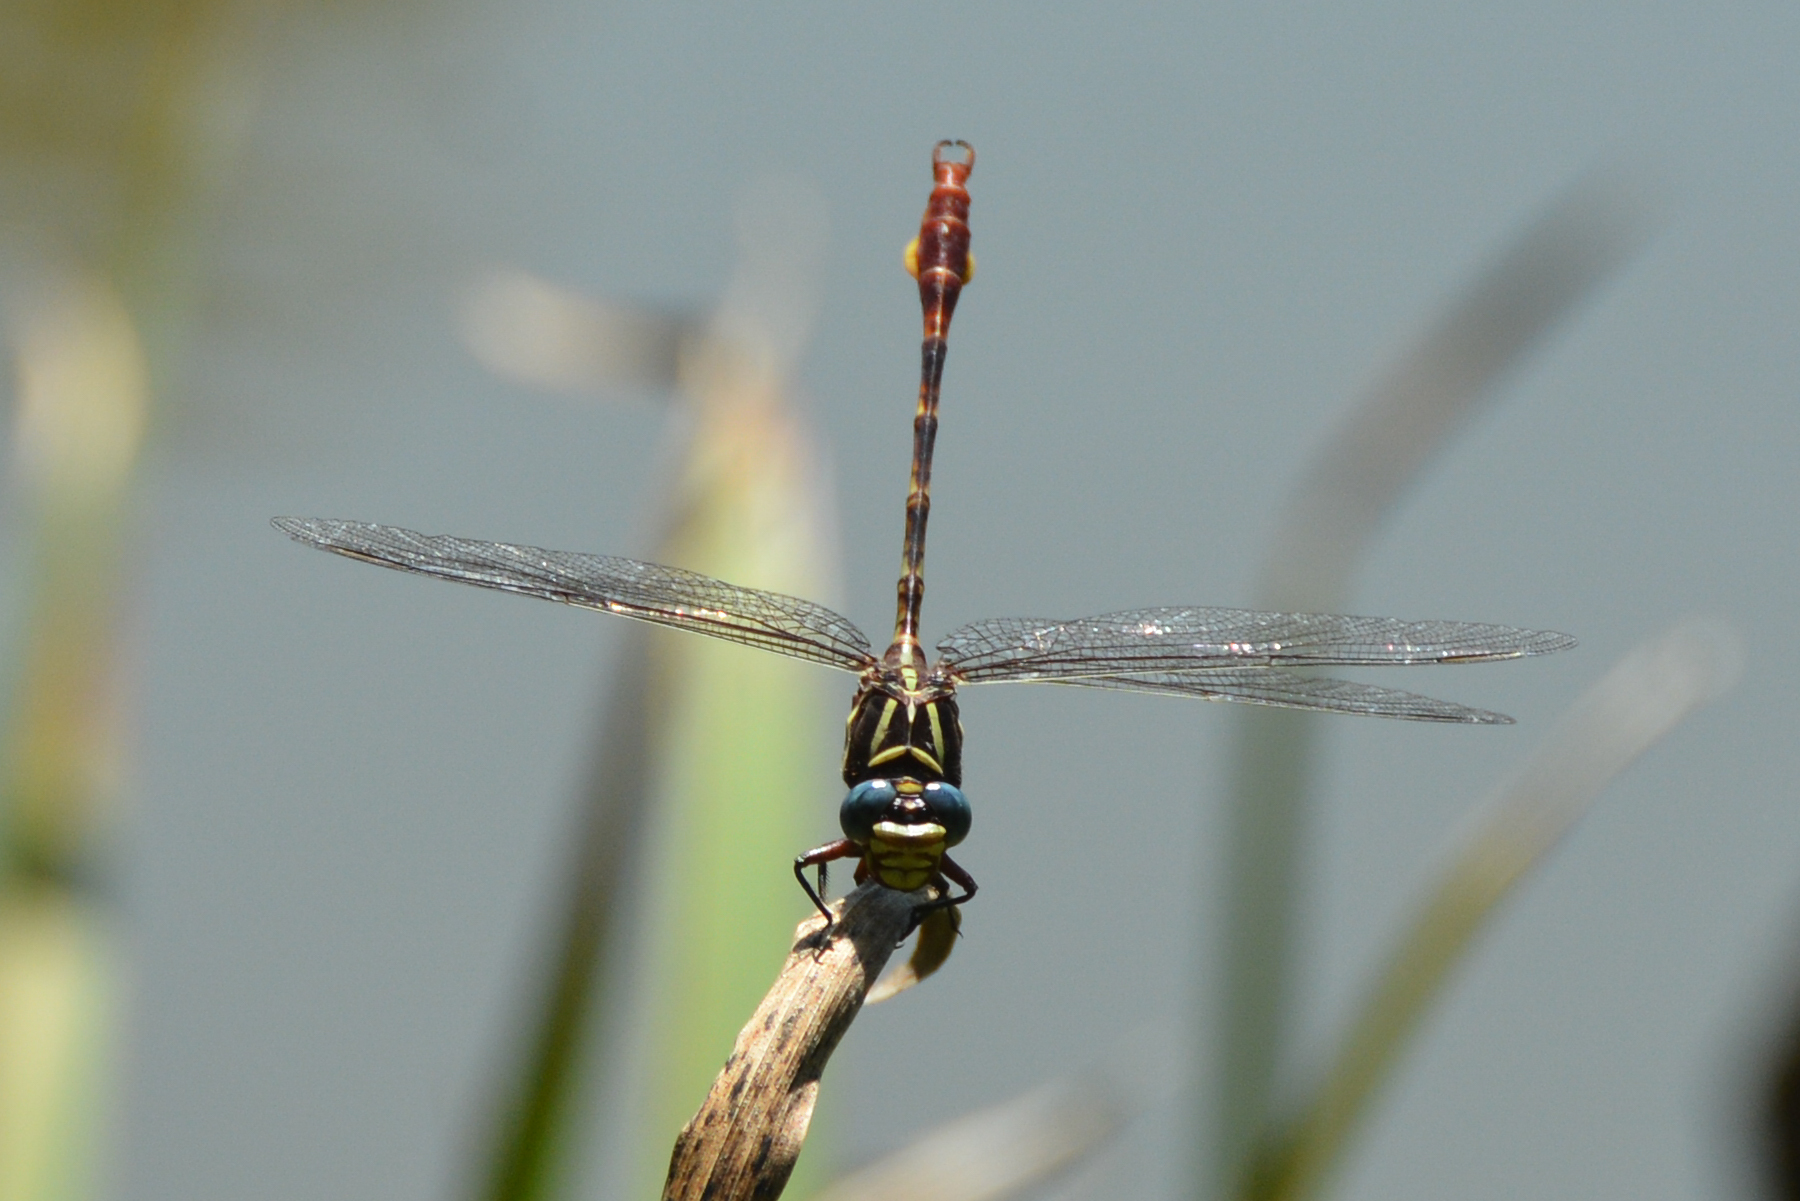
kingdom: Animalia
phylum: Arthropoda
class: Insecta
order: Odonata
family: Gomphidae
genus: Aphylla
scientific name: Aphylla williamsoni
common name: Two-striped forceptail
